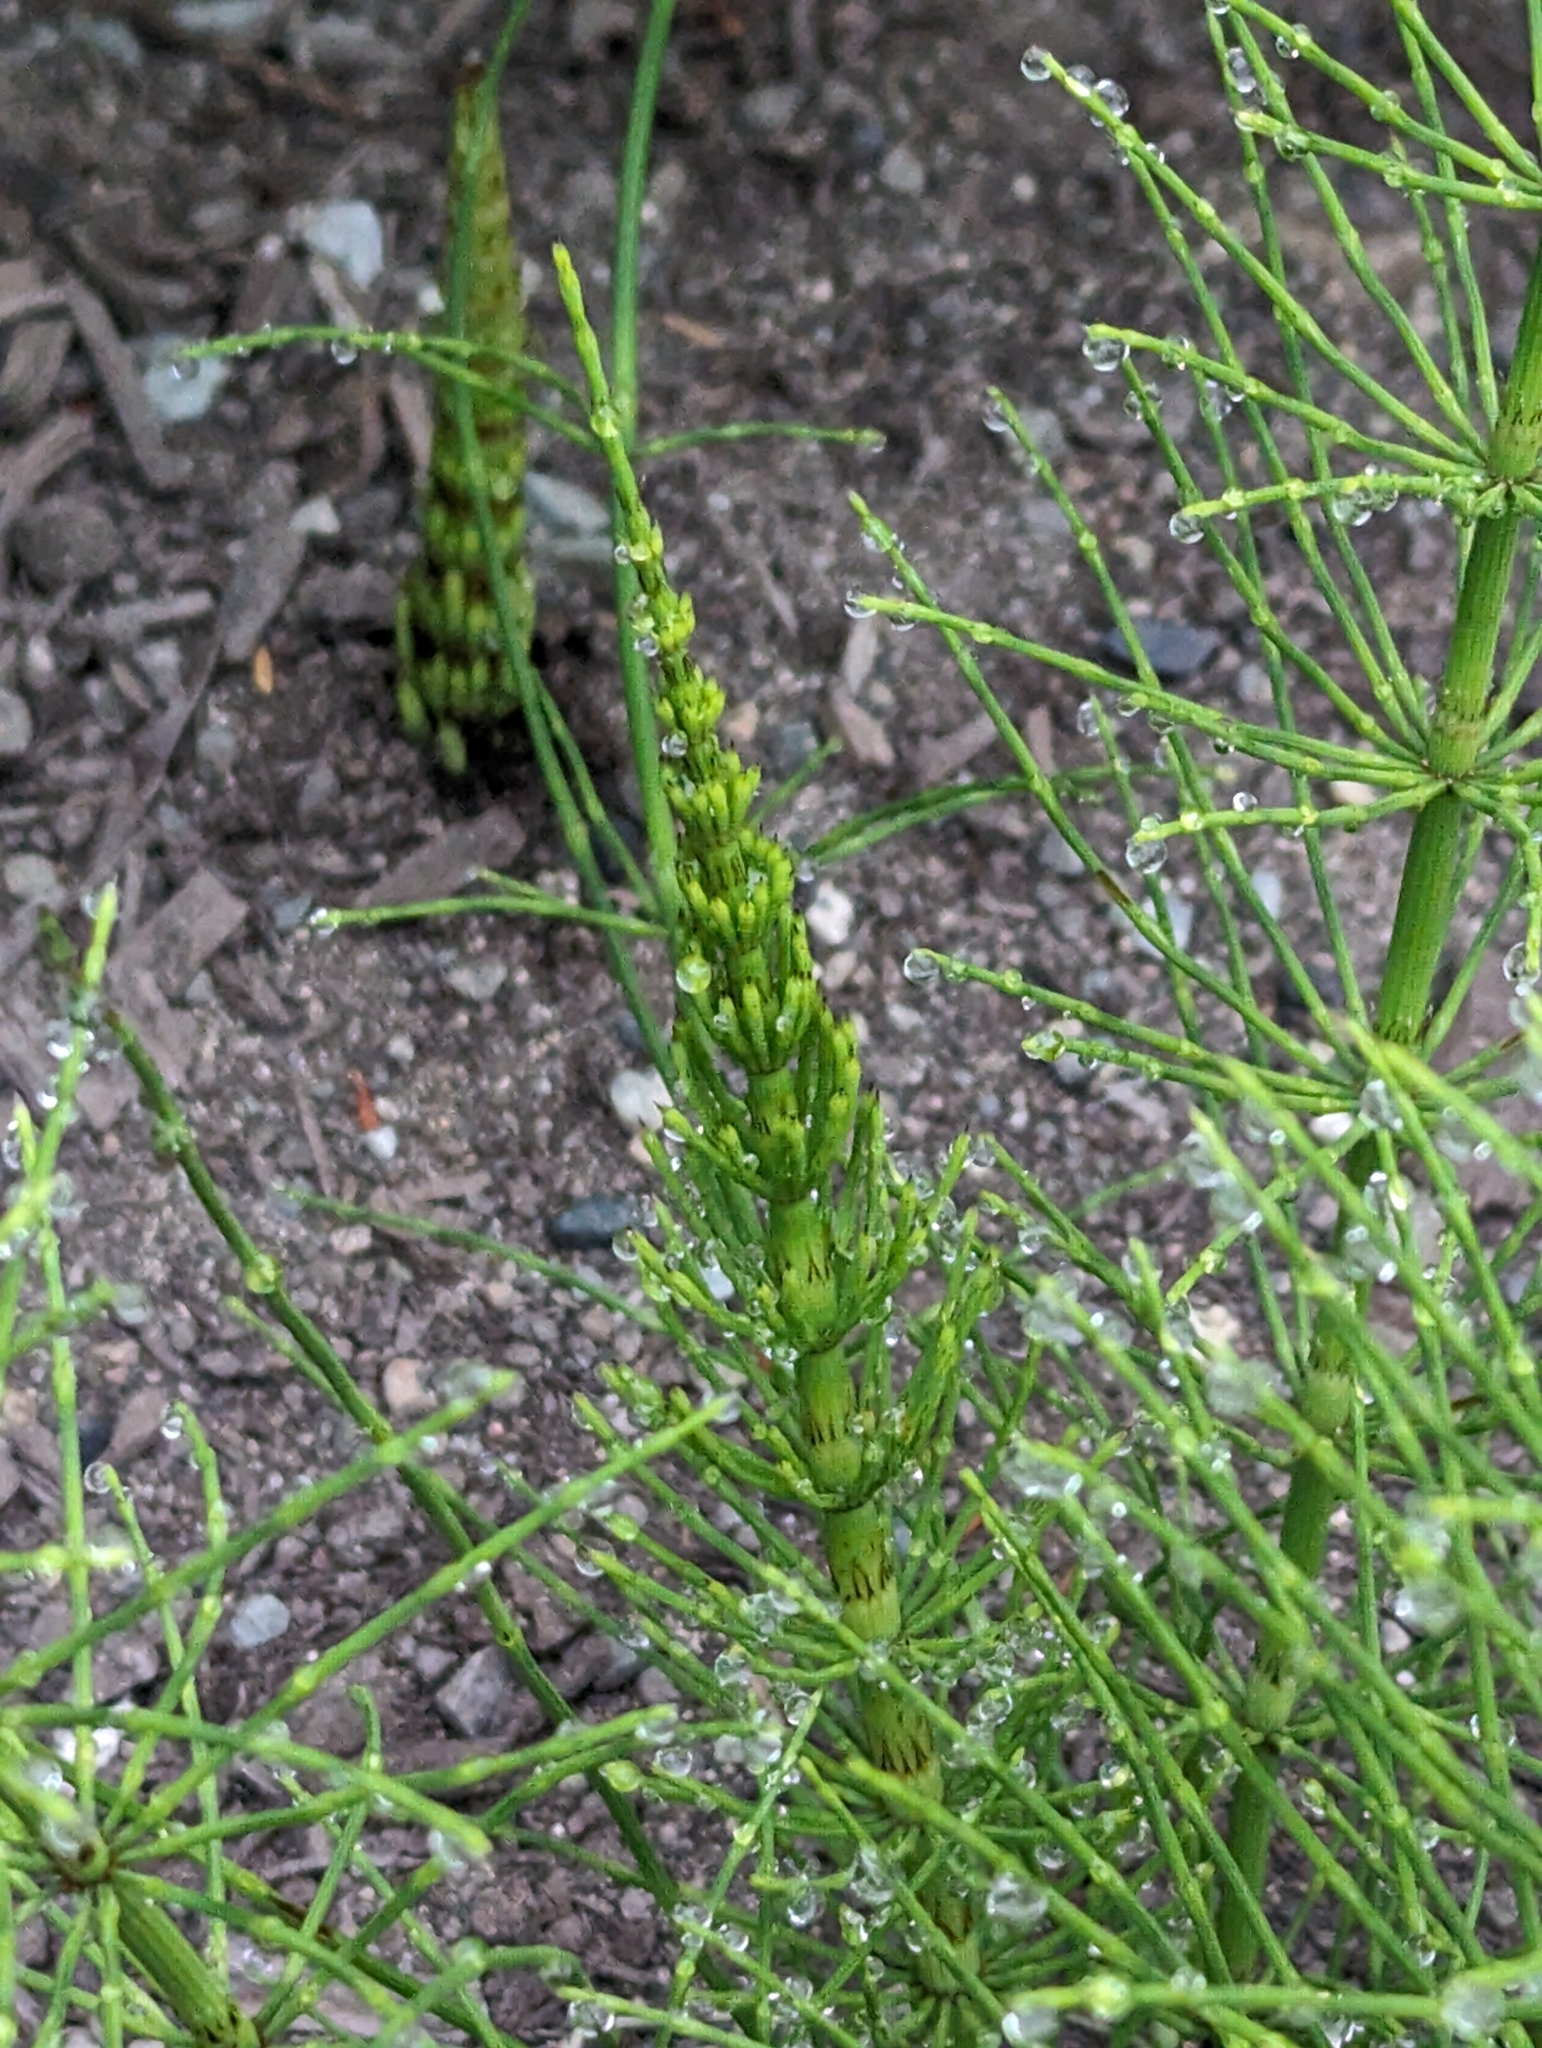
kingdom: Plantae
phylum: Tracheophyta
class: Polypodiopsida
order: Equisetales
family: Equisetaceae
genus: Equisetum
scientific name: Equisetum arvense
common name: Field horsetail
